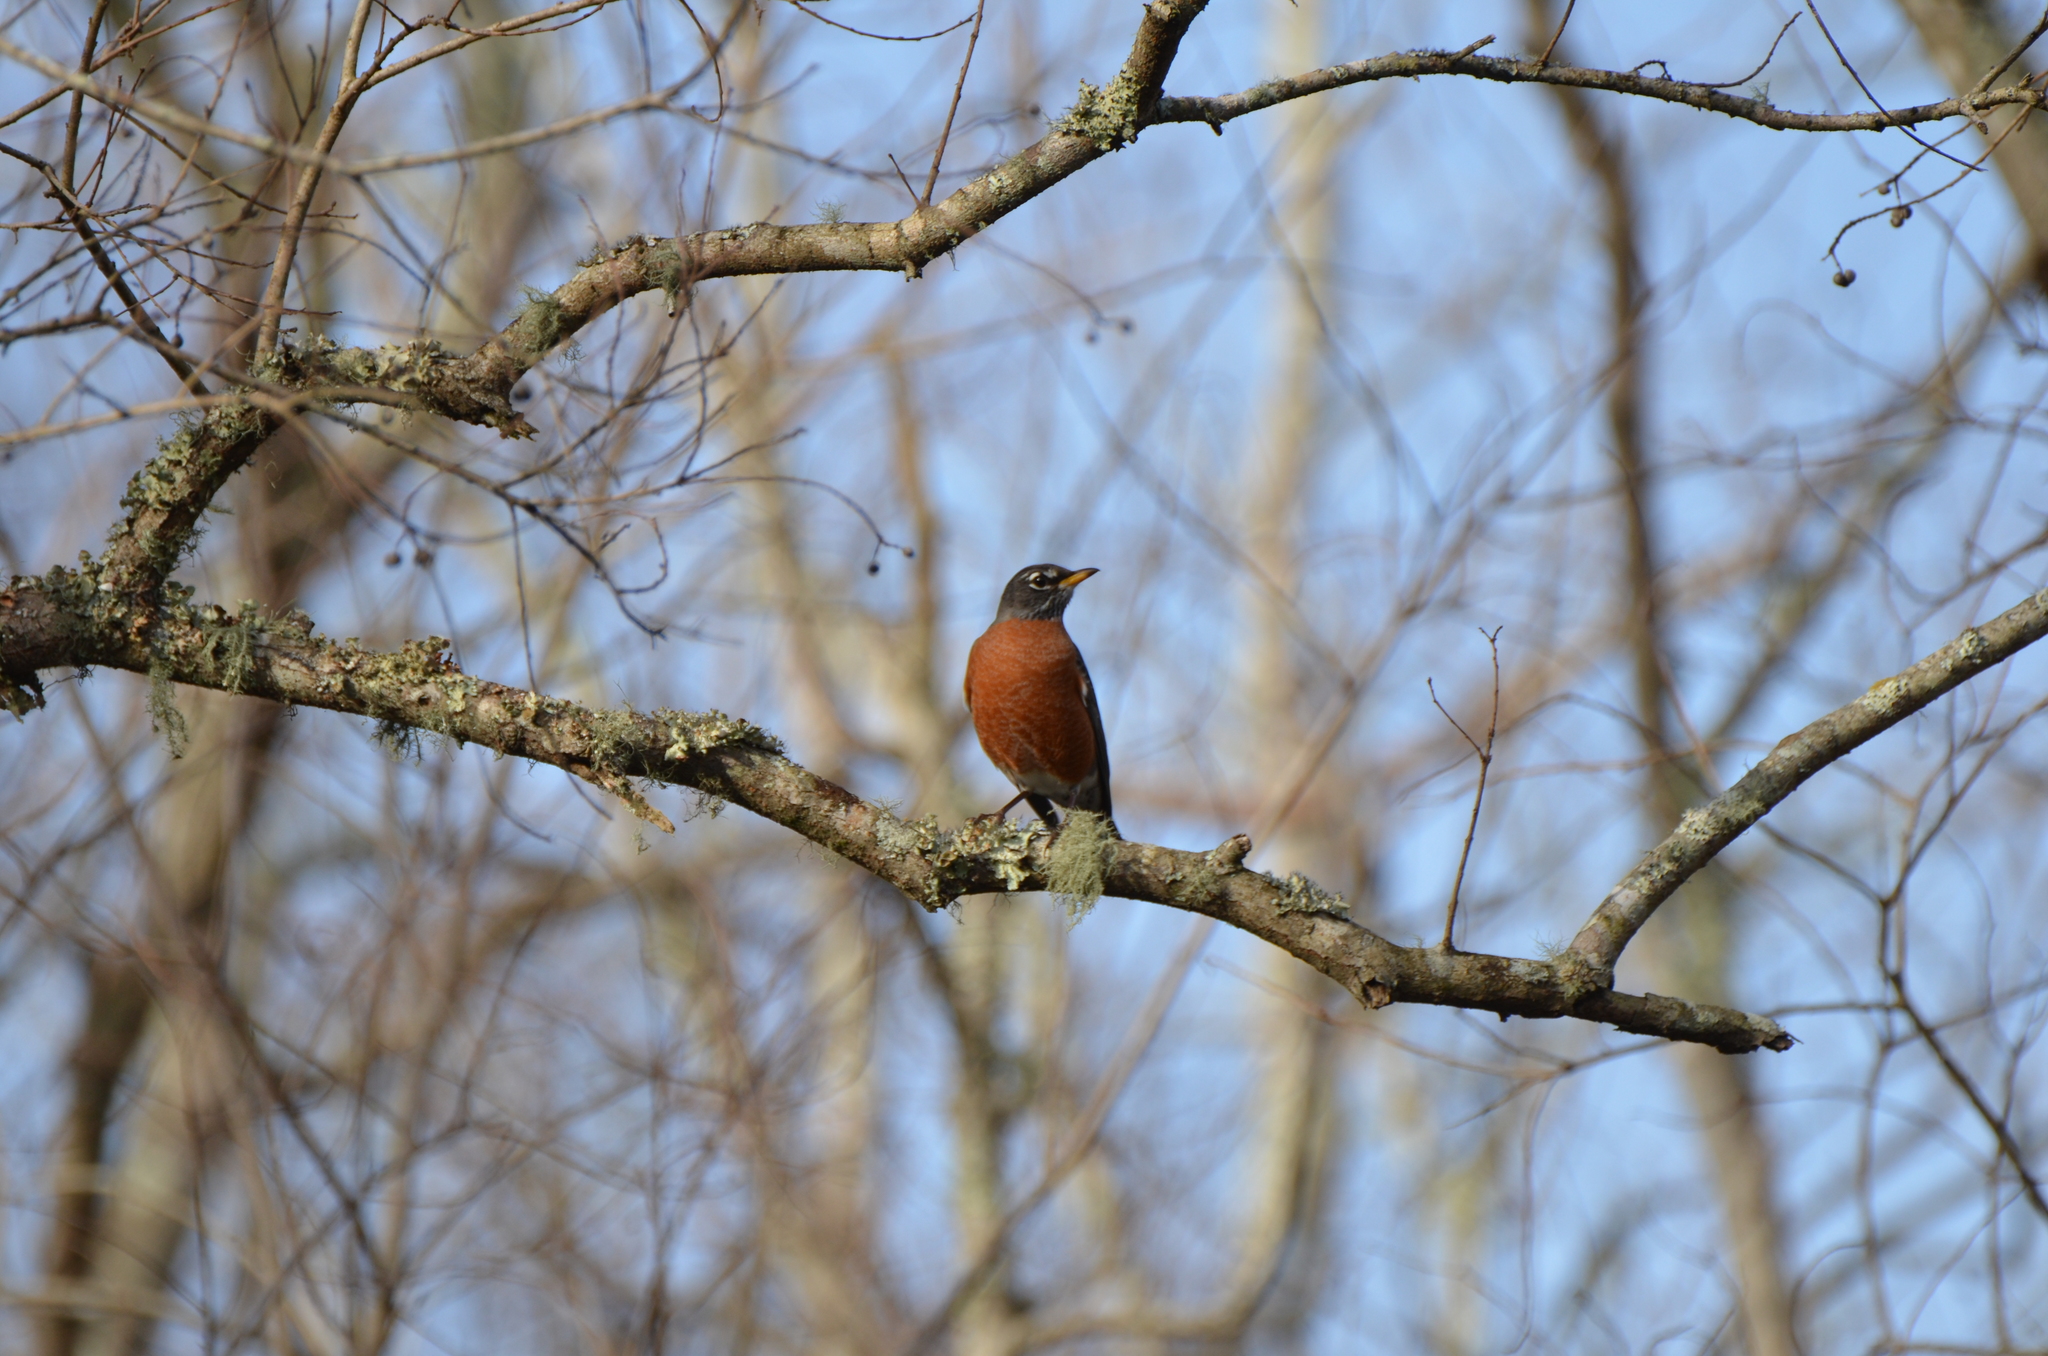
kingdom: Animalia
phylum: Chordata
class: Aves
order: Passeriformes
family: Turdidae
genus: Turdus
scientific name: Turdus migratorius
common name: American robin
